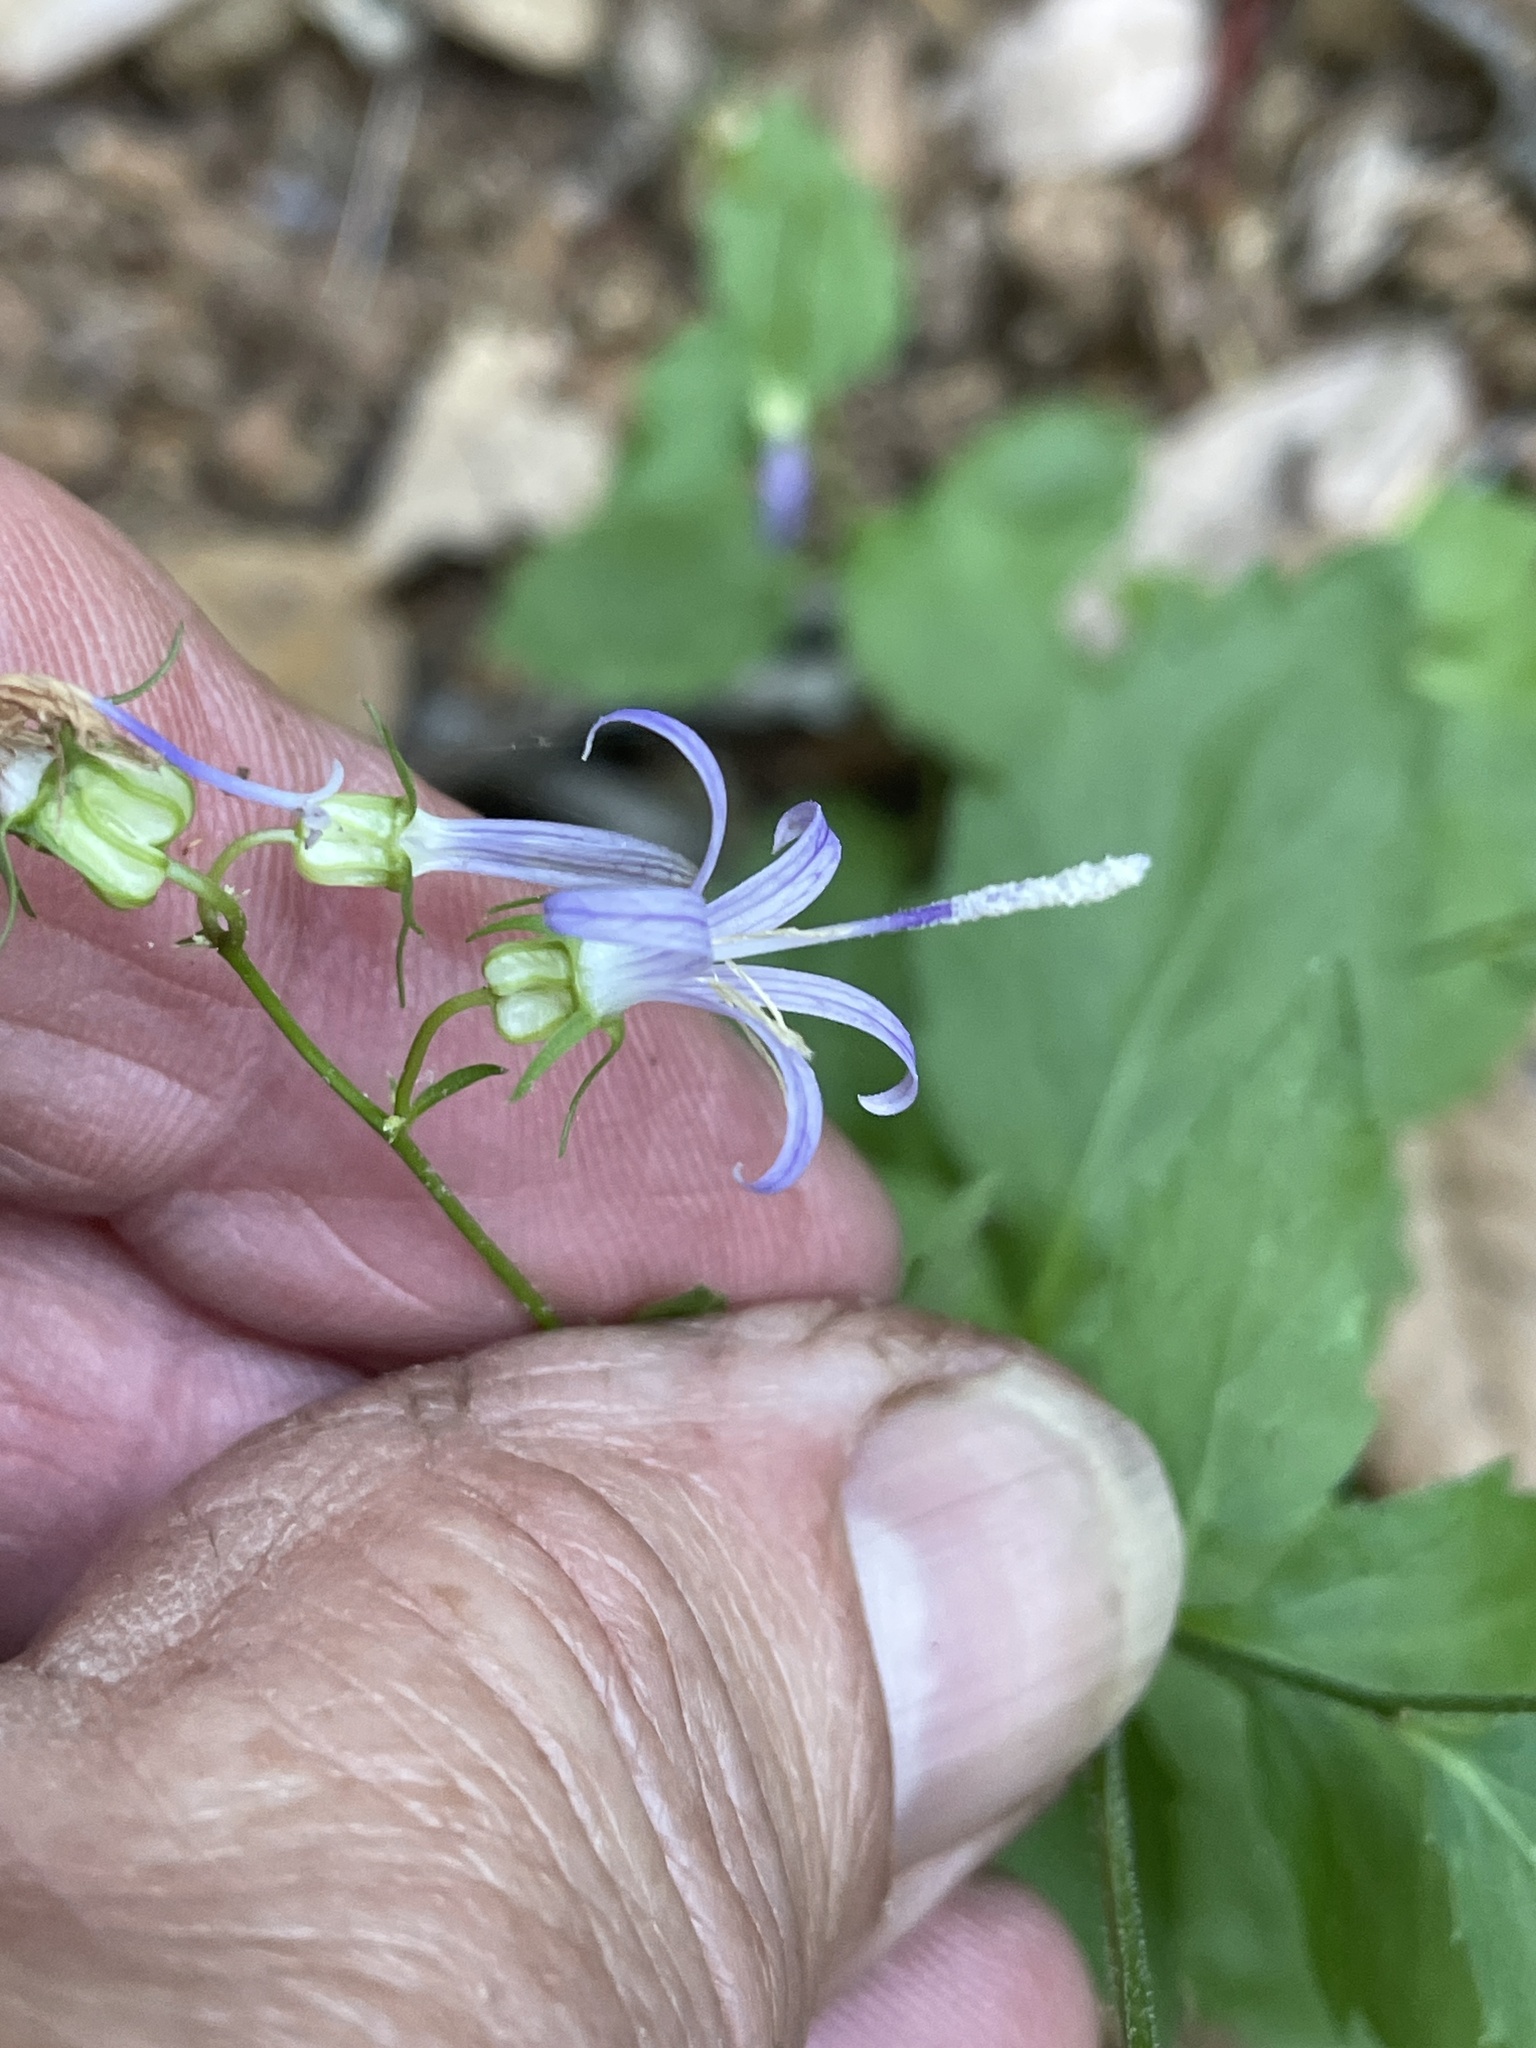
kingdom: Plantae
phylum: Tracheophyta
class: Magnoliopsida
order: Asterales
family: Campanulaceae
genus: Smithiastrum
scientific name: Smithiastrum prenanthoides
